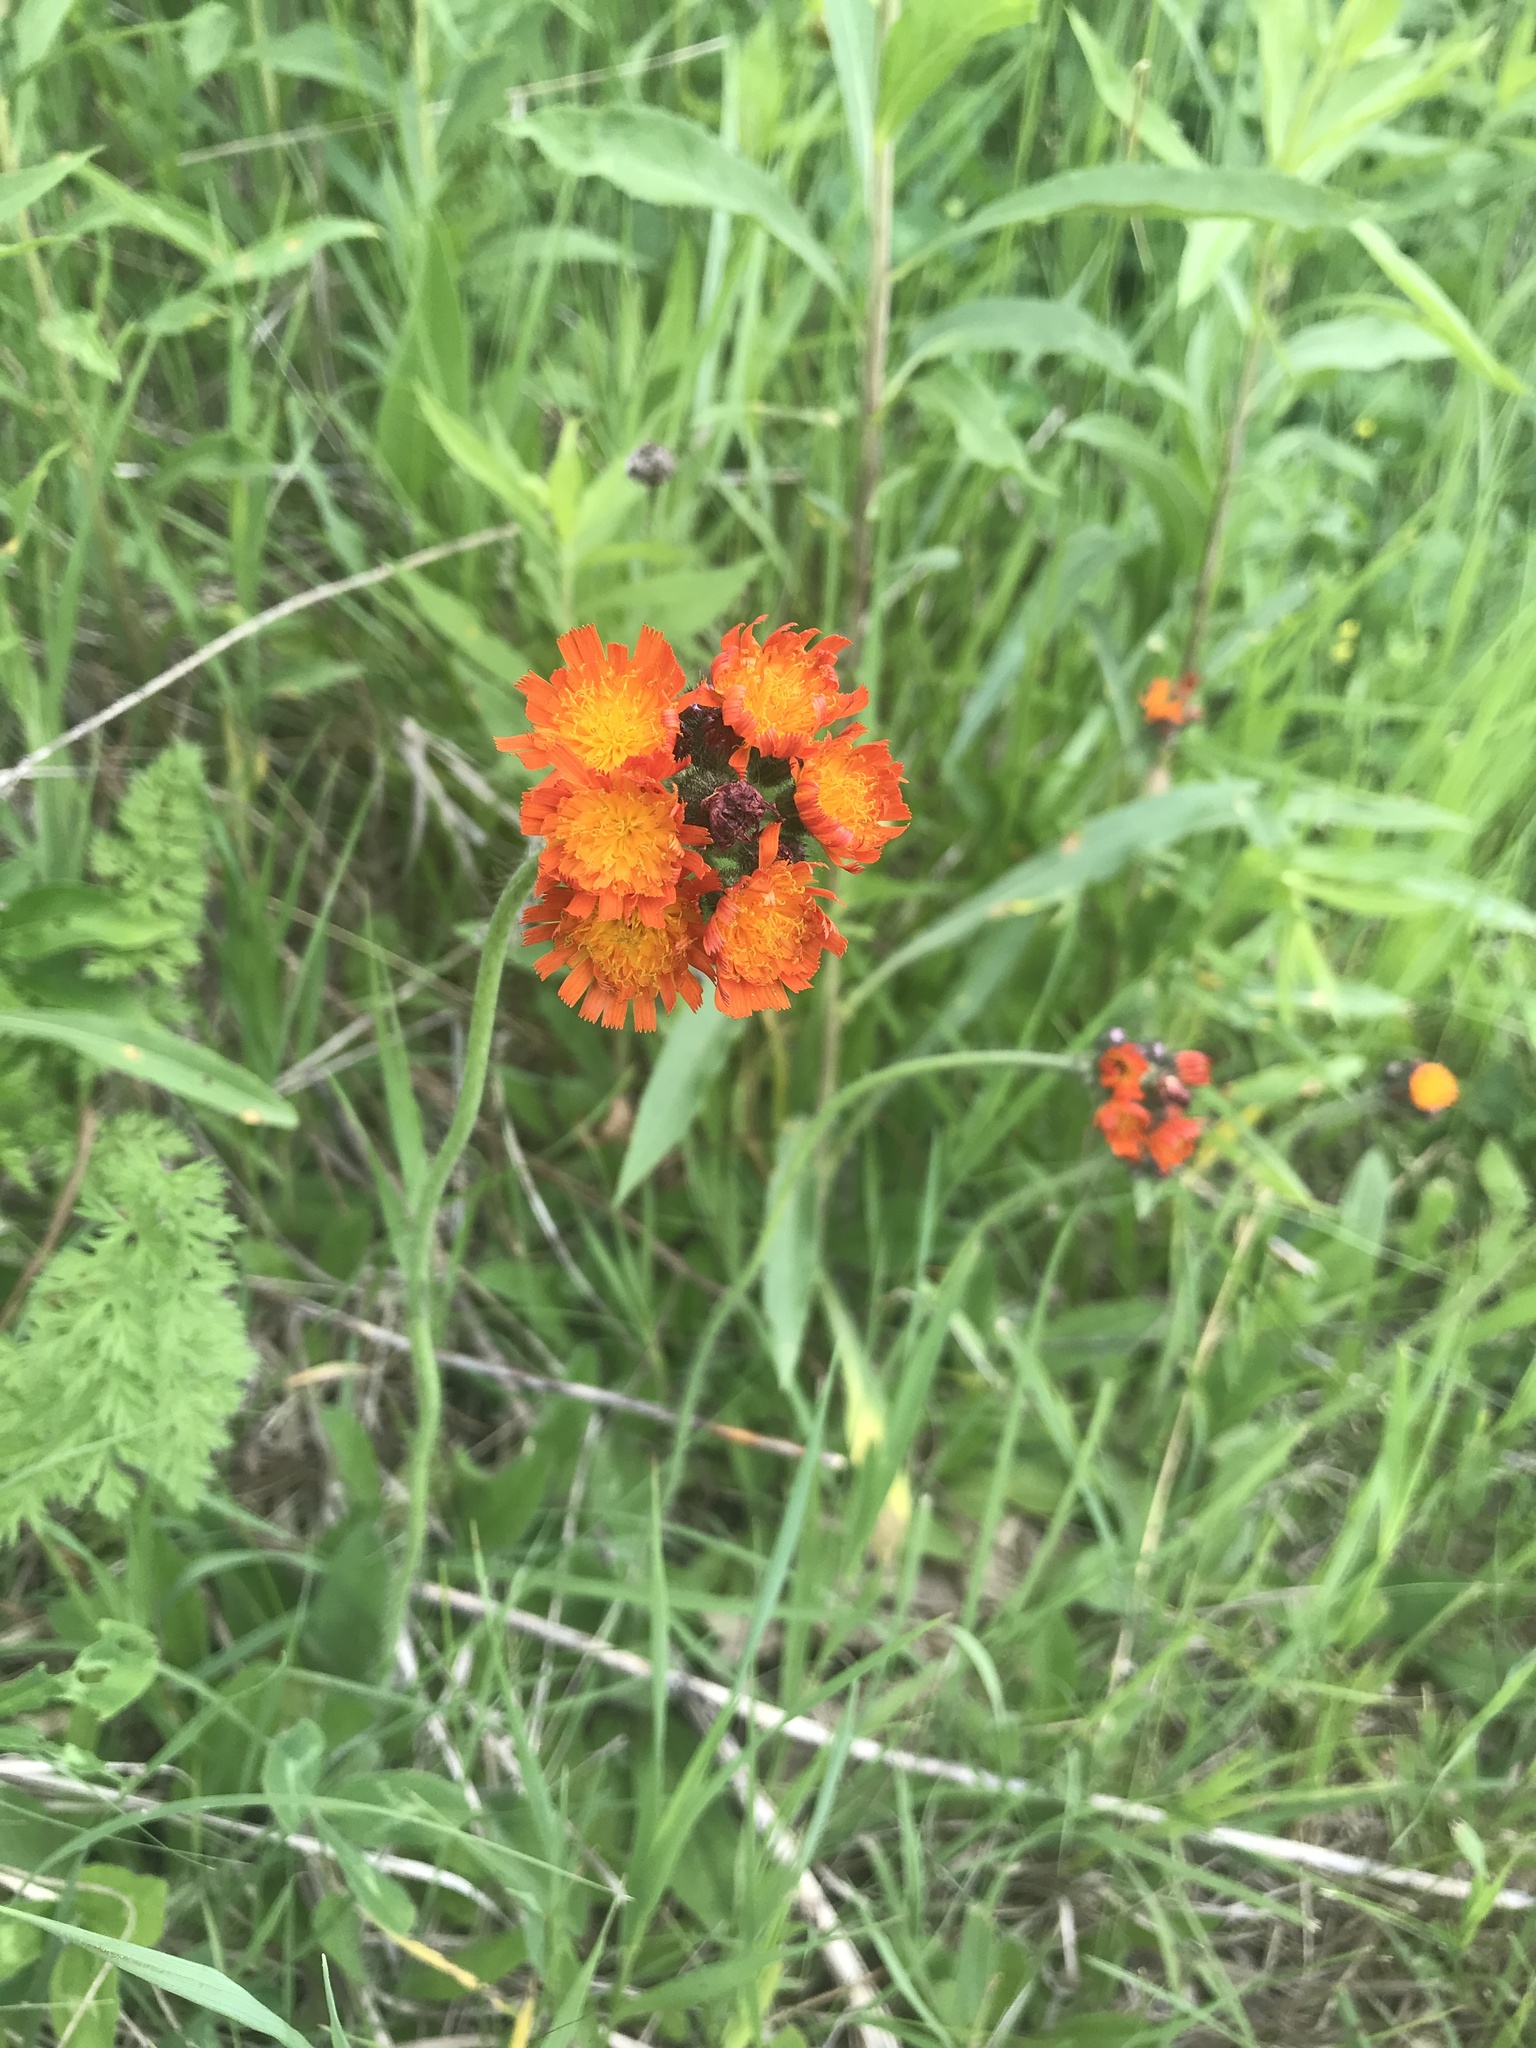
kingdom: Plantae
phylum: Tracheophyta
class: Magnoliopsida
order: Asterales
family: Asteraceae
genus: Pilosella
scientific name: Pilosella aurantiaca
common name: Fox-and-cubs
